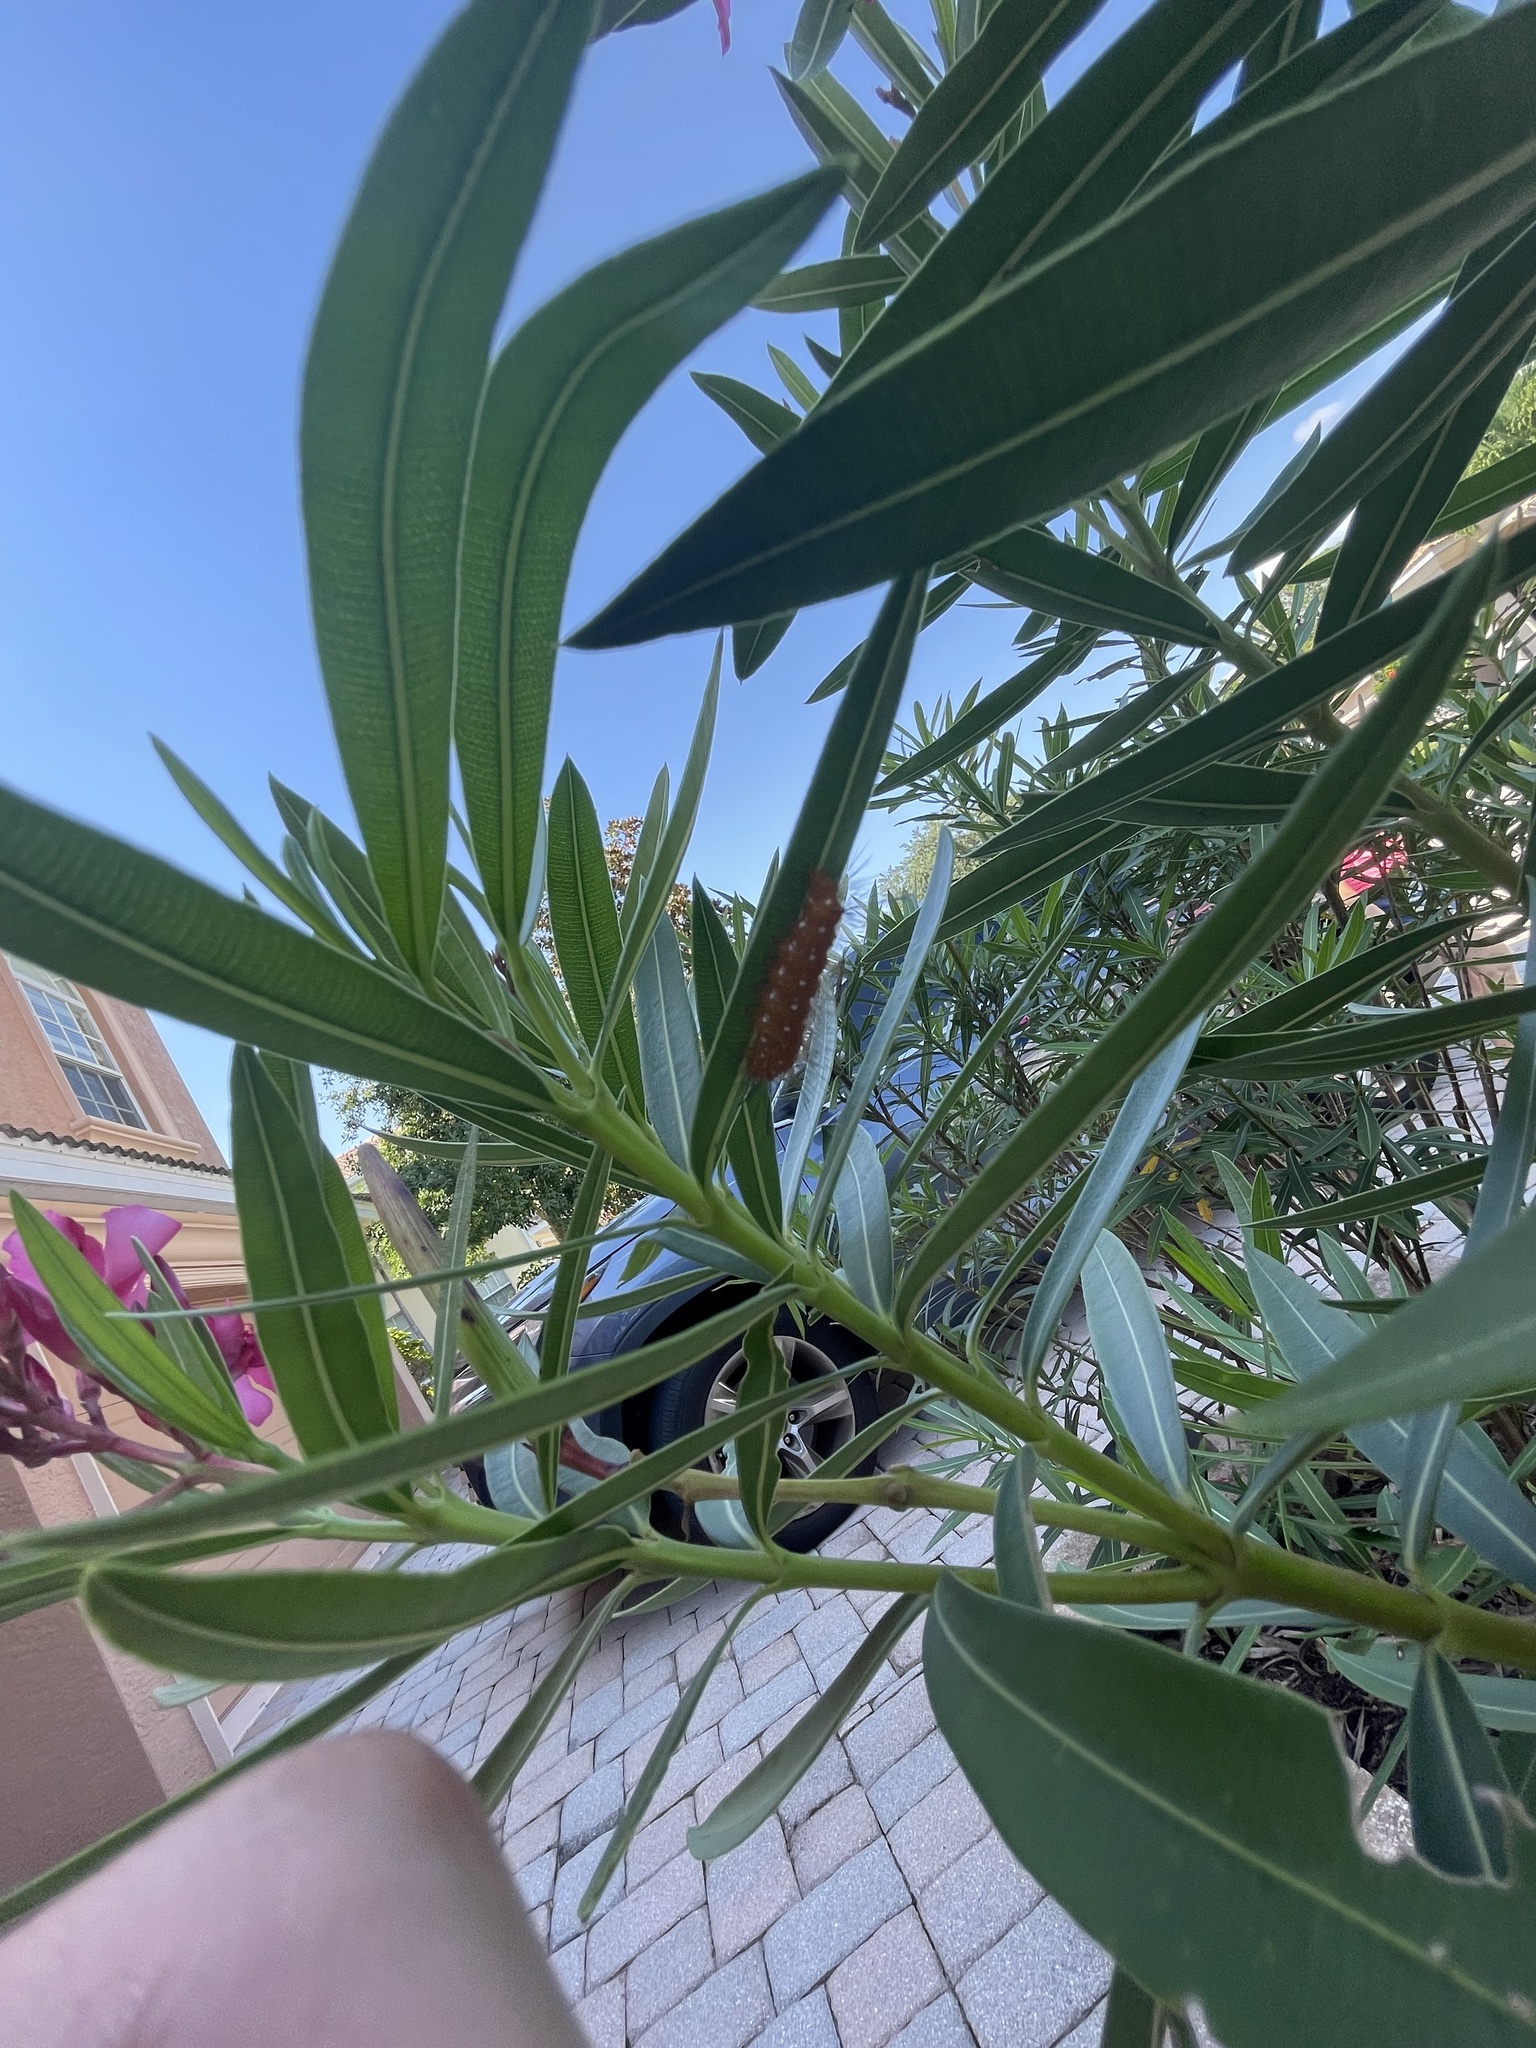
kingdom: Animalia
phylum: Arthropoda
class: Insecta
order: Lepidoptera
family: Erebidae
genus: Empyreuma
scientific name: Empyreuma pugione
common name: Spotted oleander caterpillar moth
